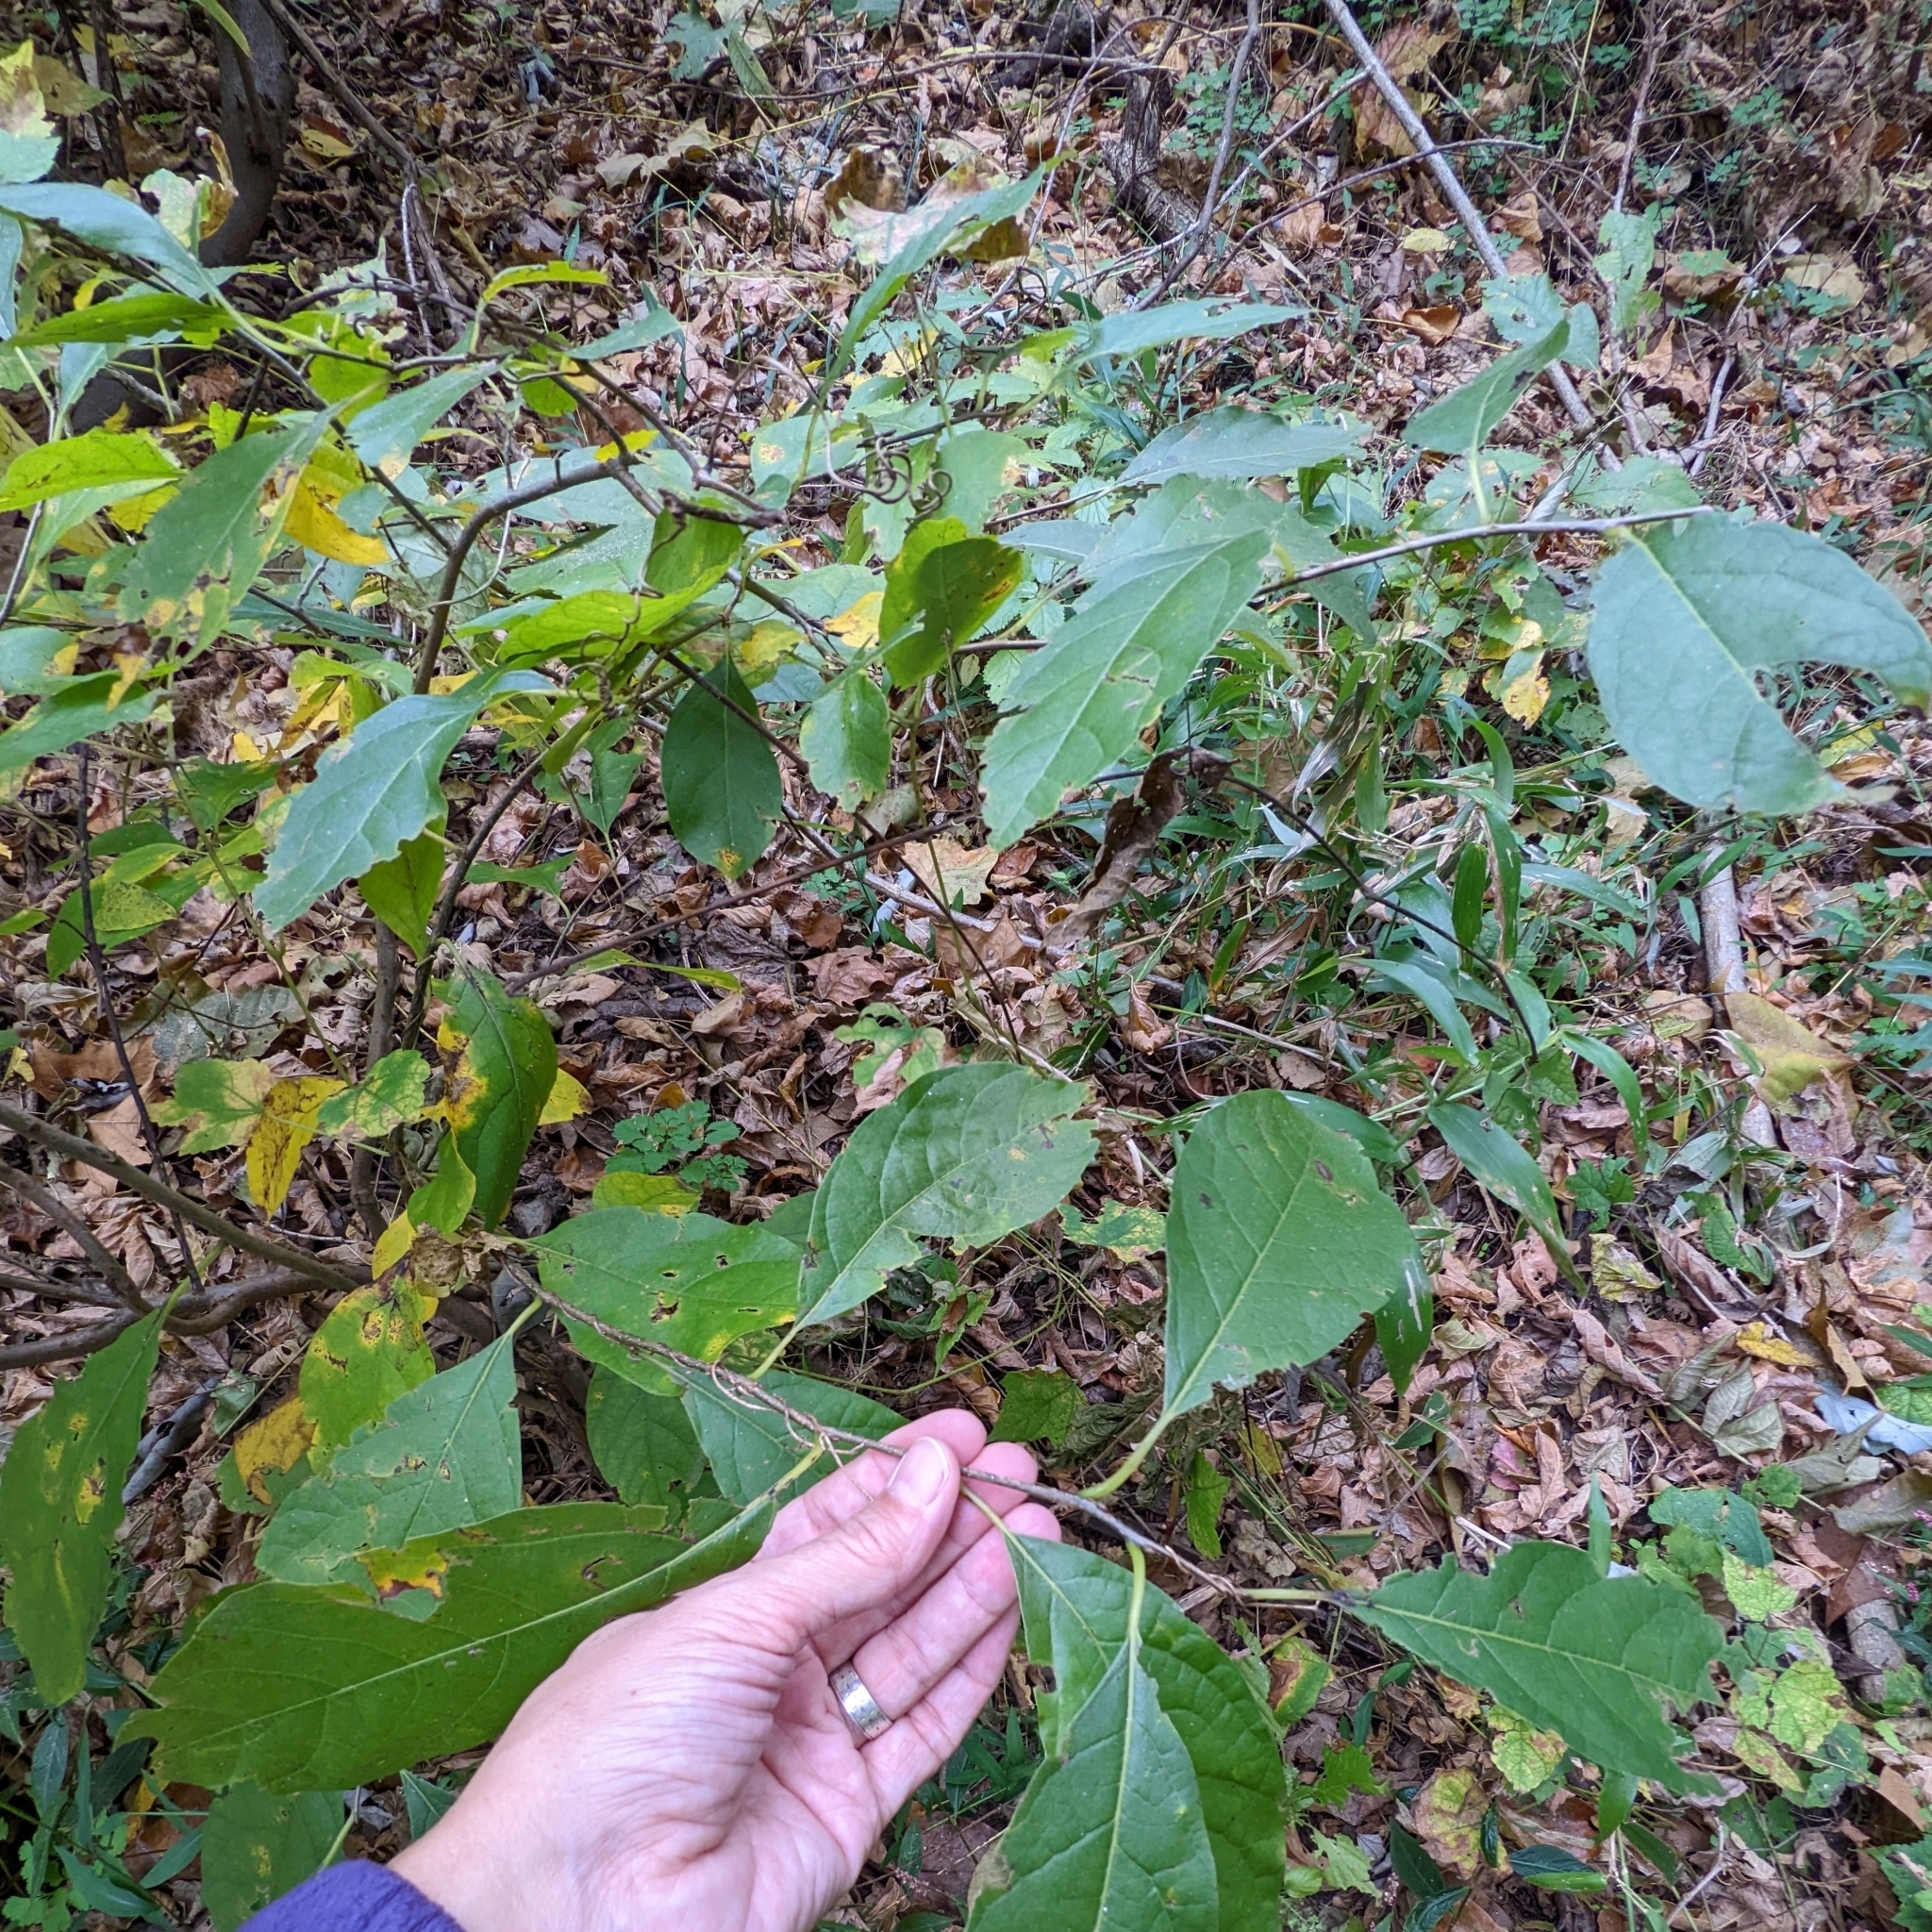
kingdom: Plantae
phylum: Tracheophyta
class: Magnoliopsida
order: Laurales
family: Lauraceae
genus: Lindera
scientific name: Lindera benzoin
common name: Spicebush
